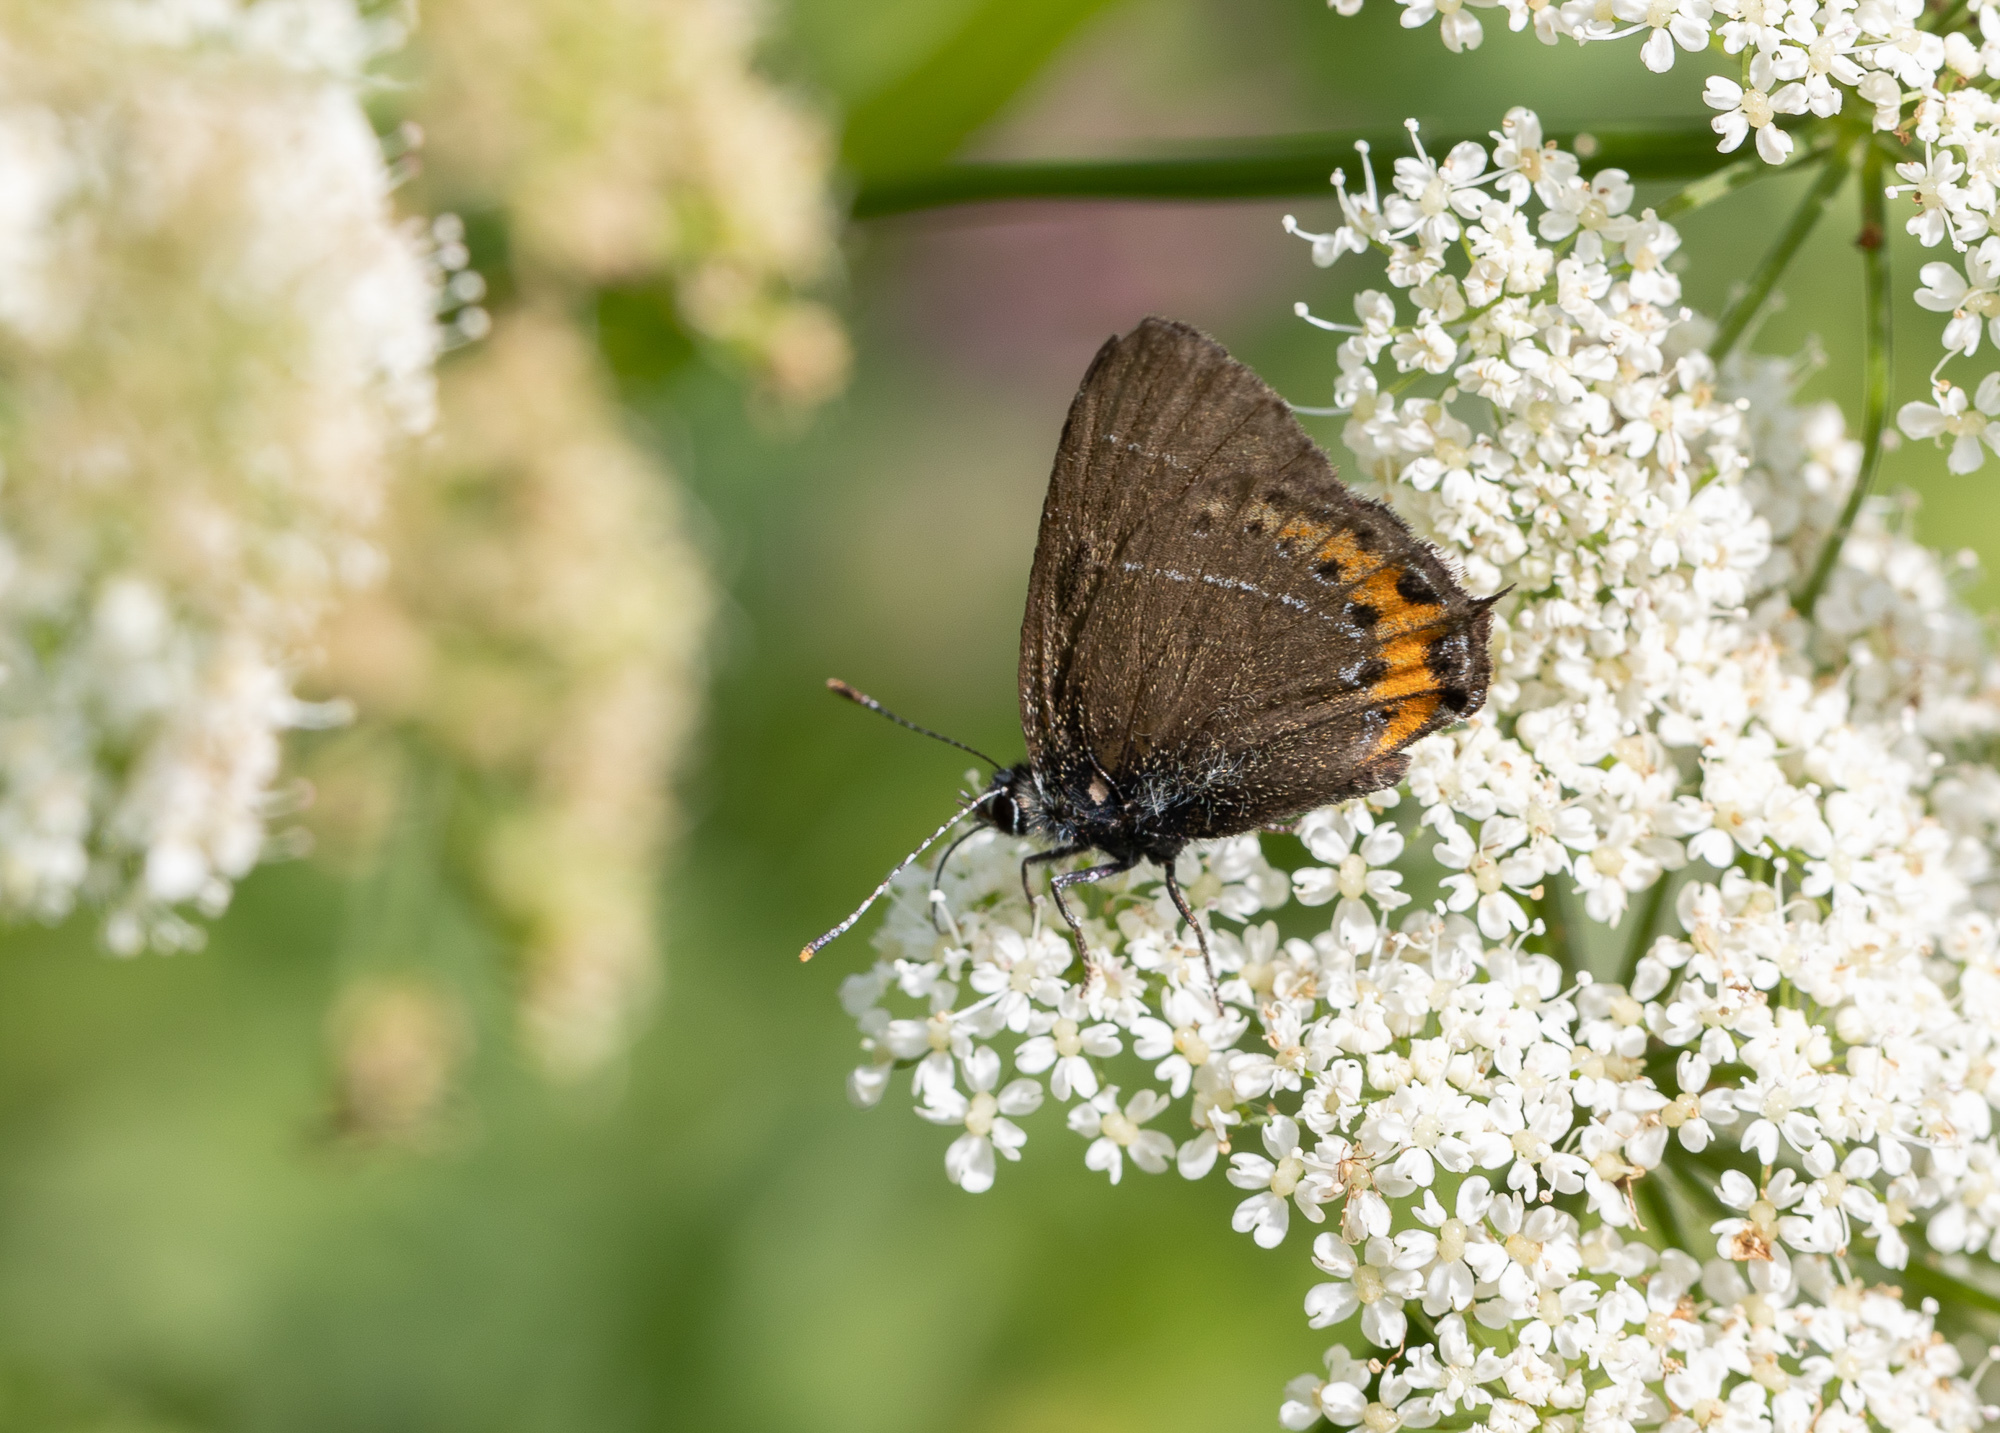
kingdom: Animalia
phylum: Arthropoda
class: Insecta
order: Lepidoptera
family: Lycaenidae
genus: Fixsenia
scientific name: Fixsenia pruni
